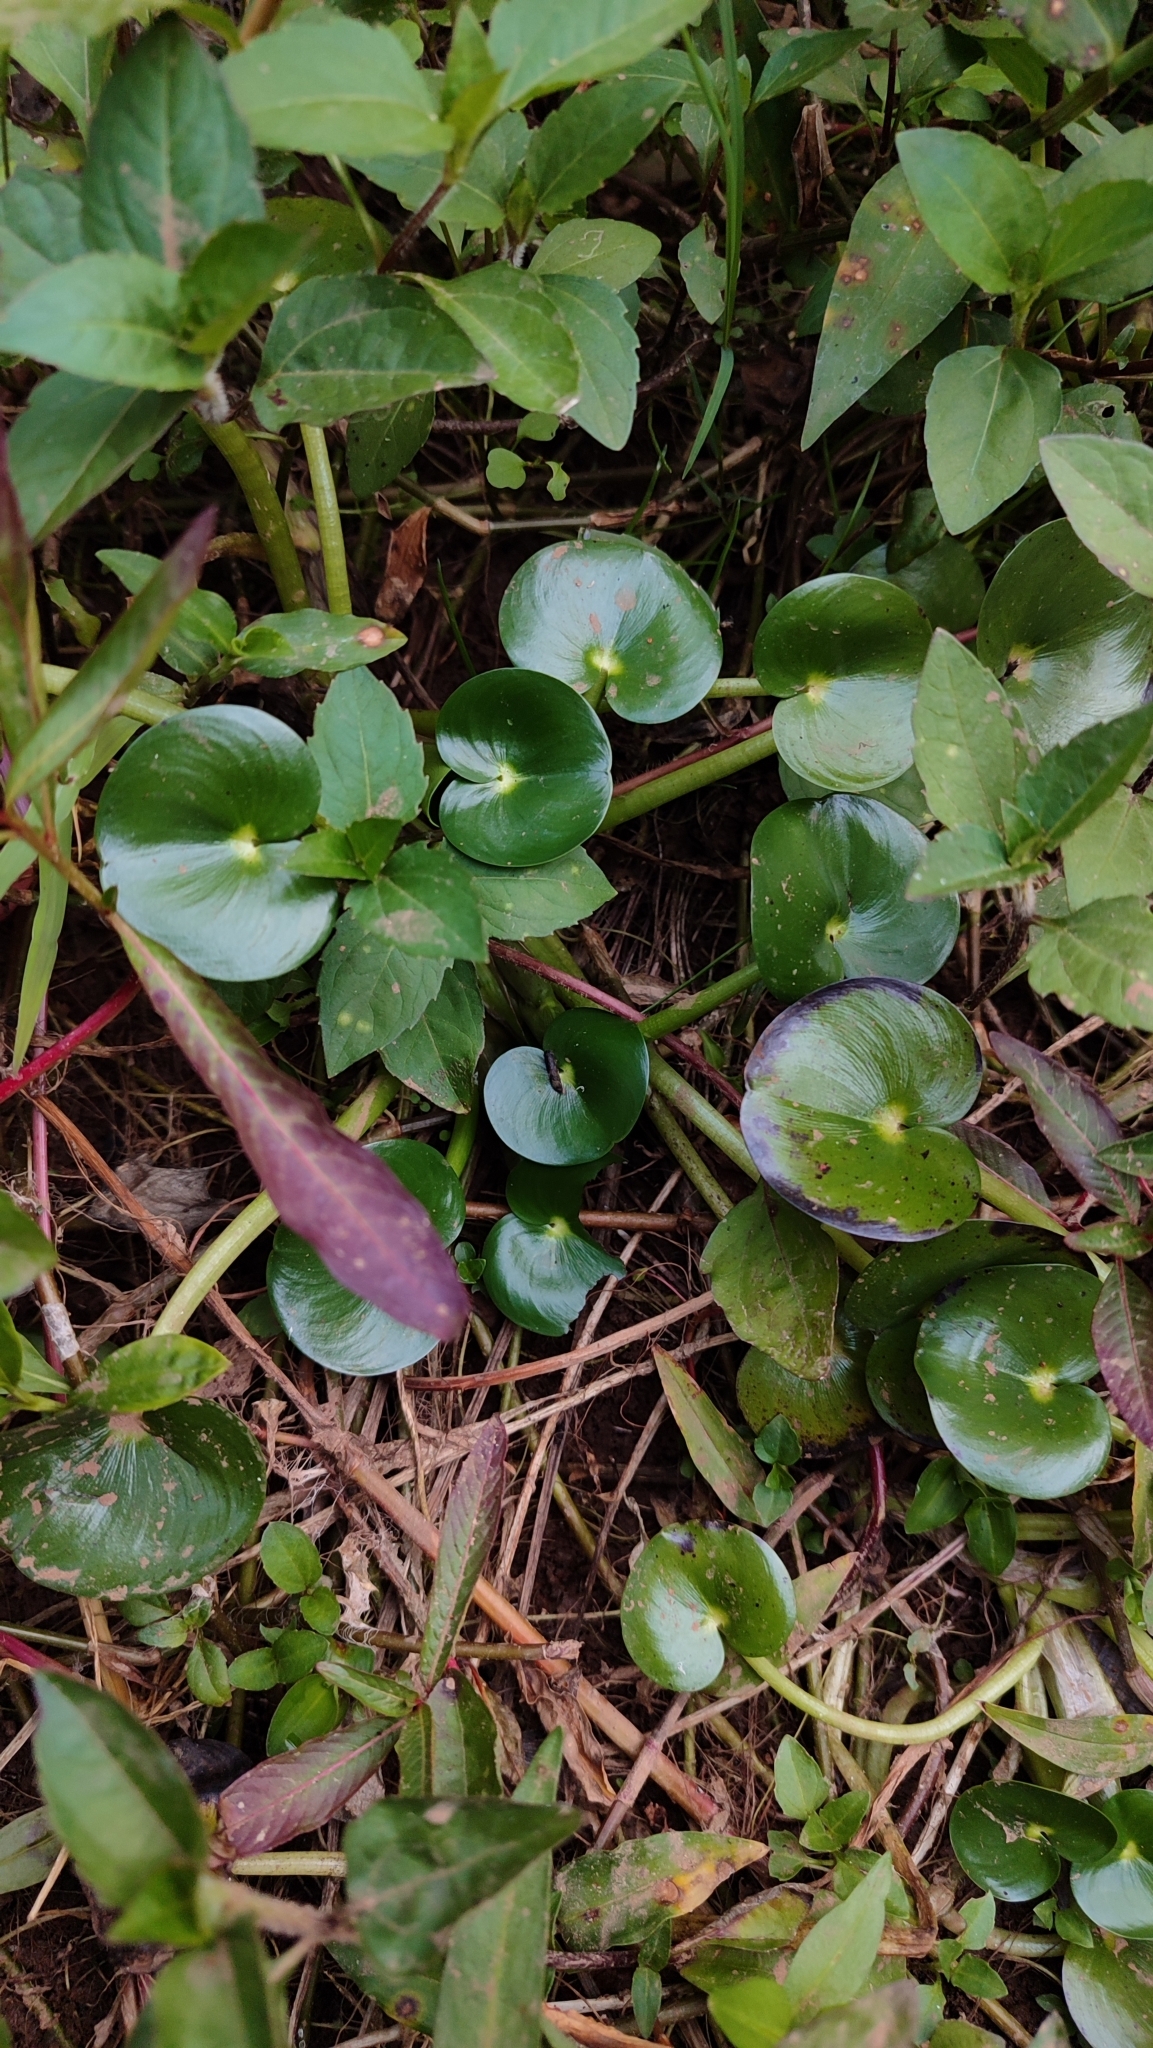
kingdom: Plantae
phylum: Tracheophyta
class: Liliopsida
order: Commelinales
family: Pontederiaceae
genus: Heteranthera
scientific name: Heteranthera reniformis
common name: Kidneyleaf mudplantain
